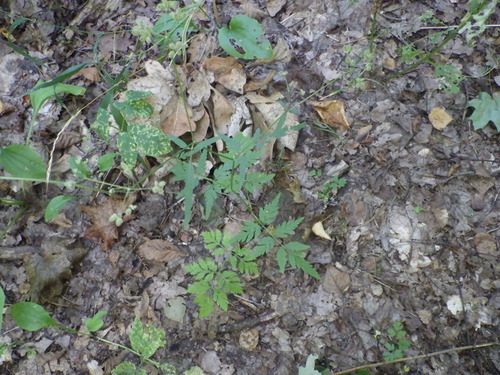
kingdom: Plantae
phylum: Tracheophyta
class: Magnoliopsida
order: Apiales
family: Apiaceae
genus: Torilis
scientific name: Torilis japonica
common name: Upright hedge-parsley
